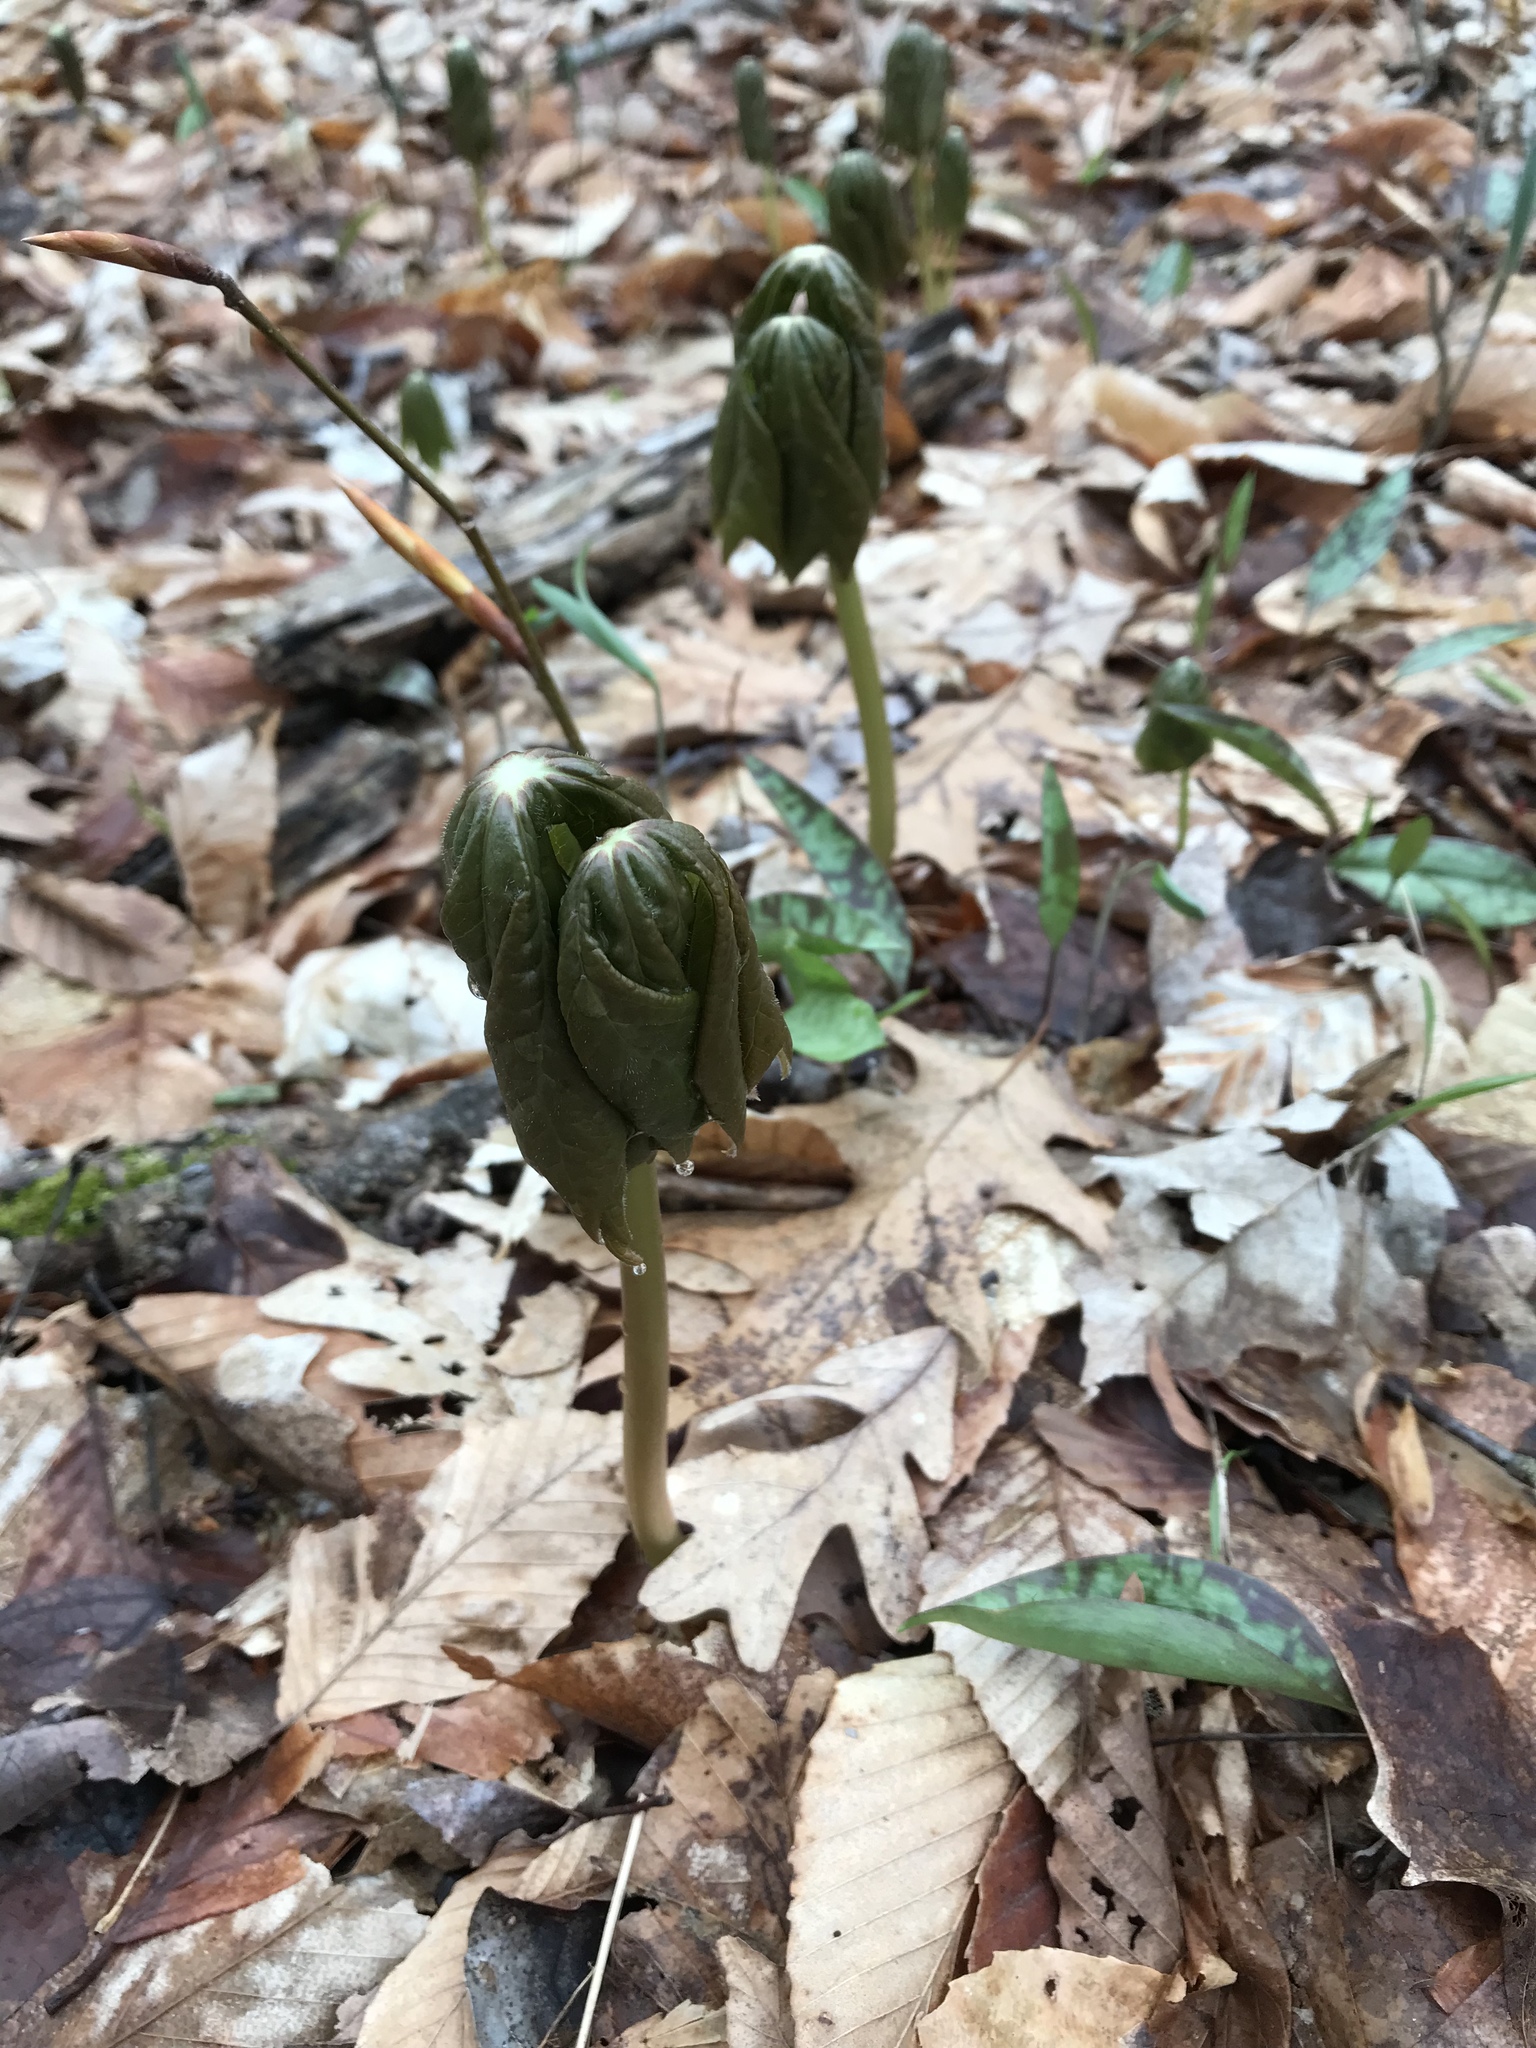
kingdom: Plantae
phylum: Tracheophyta
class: Magnoliopsida
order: Ranunculales
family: Berberidaceae
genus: Podophyllum
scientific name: Podophyllum peltatum
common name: Wild mandrake
